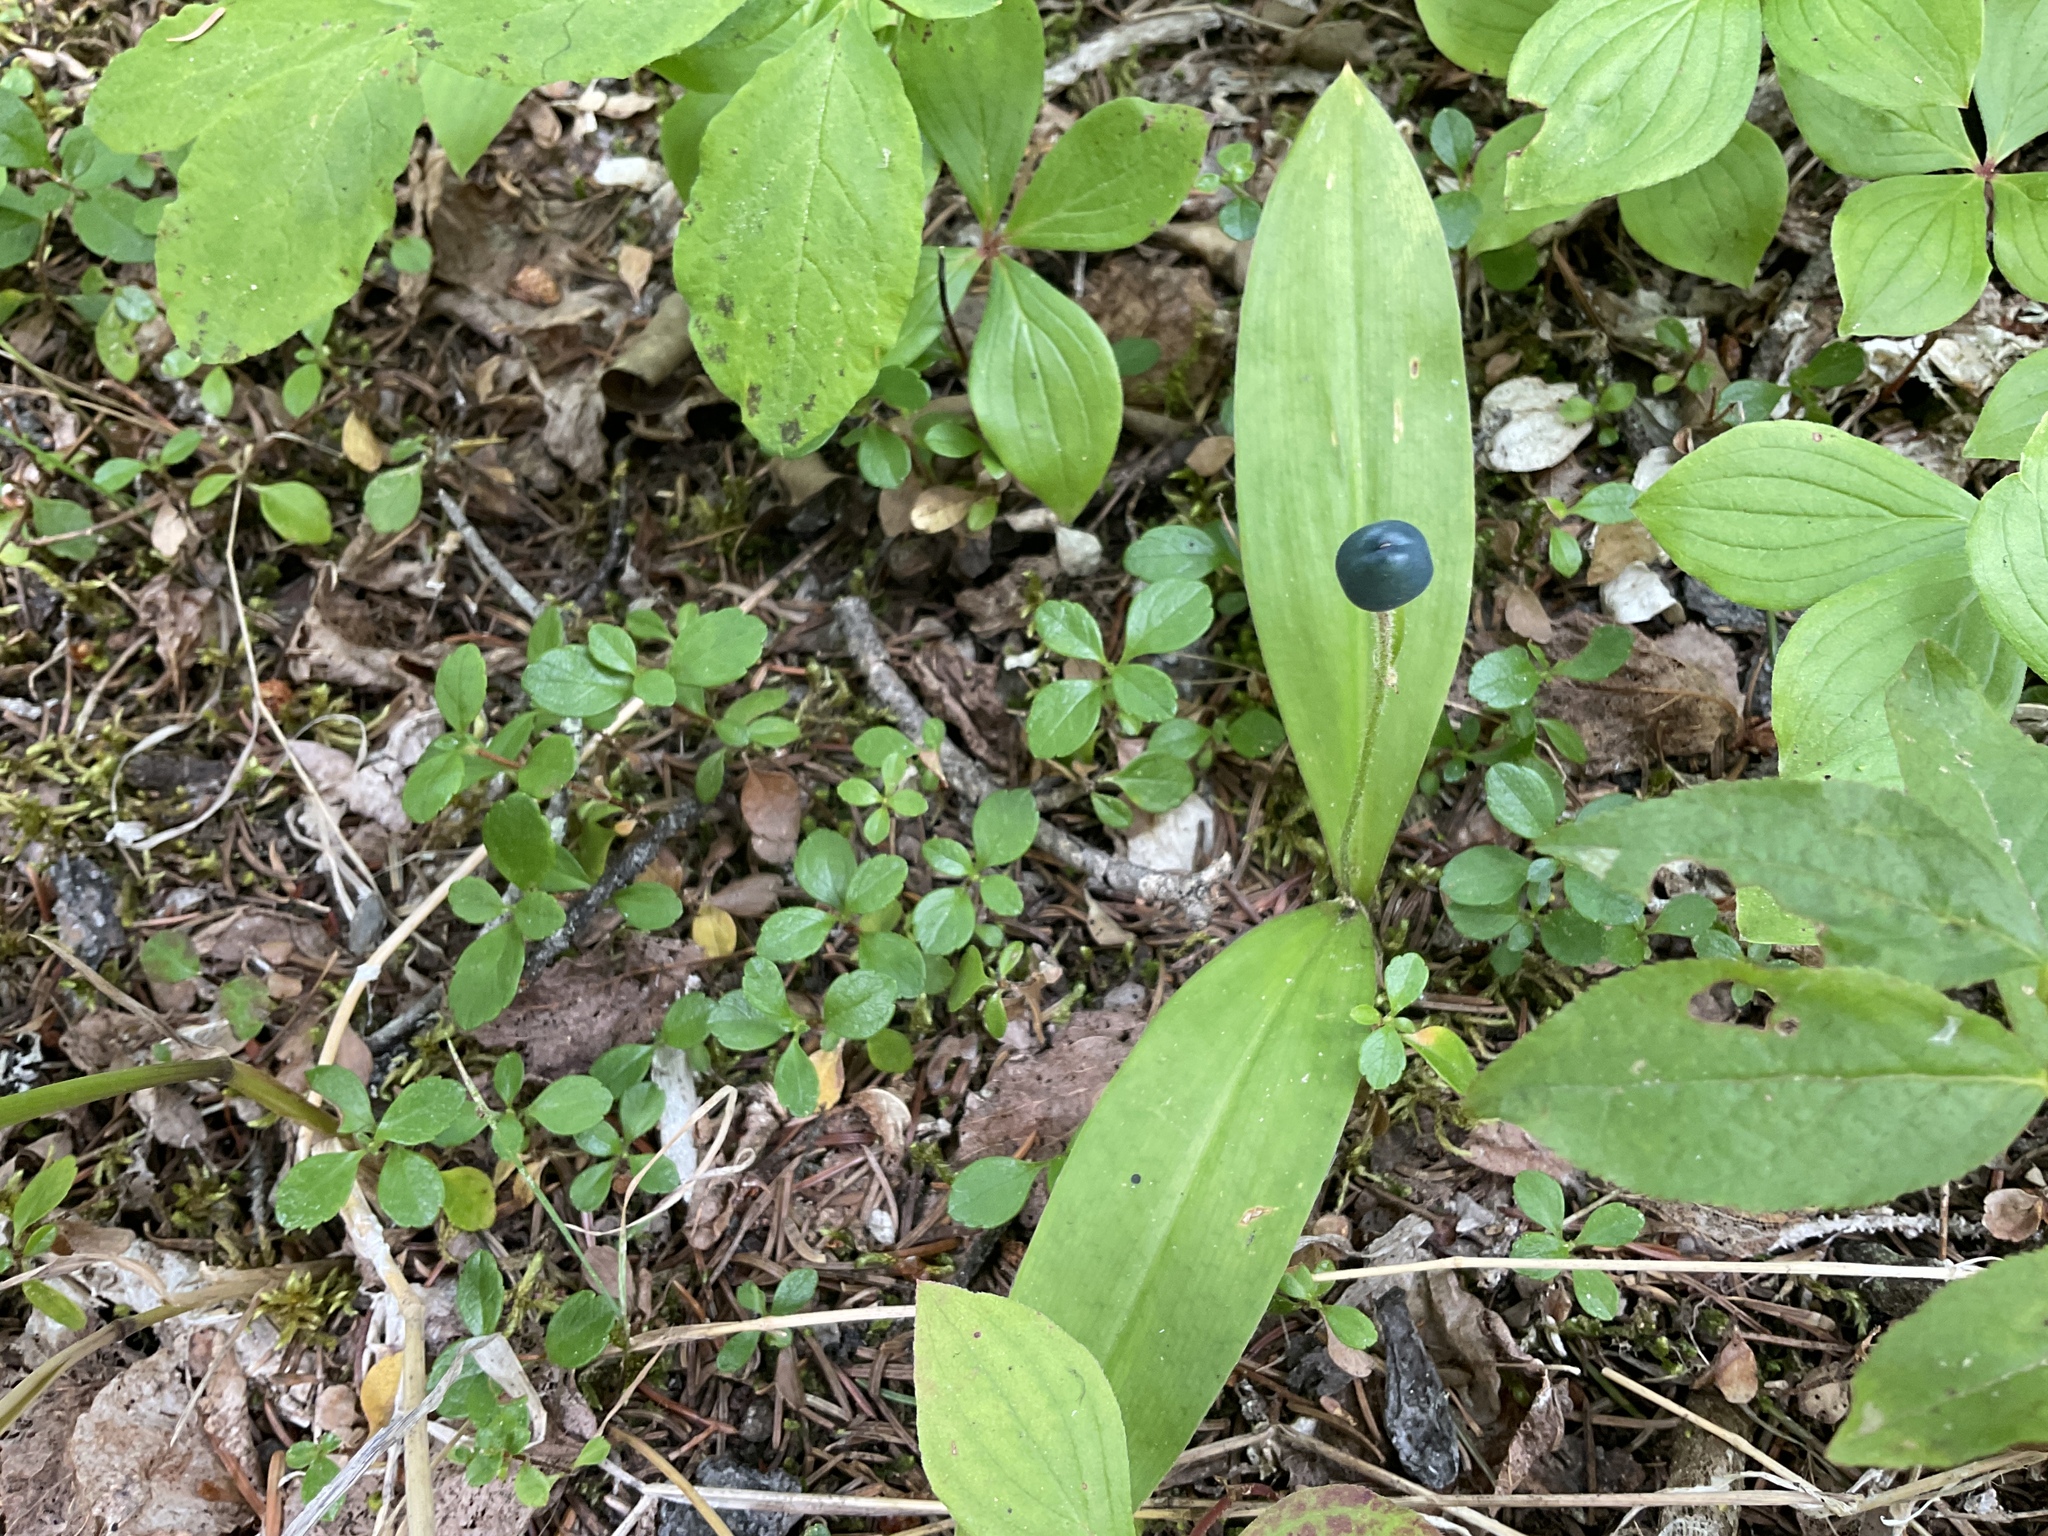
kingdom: Plantae
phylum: Tracheophyta
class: Liliopsida
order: Liliales
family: Liliaceae
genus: Clintonia
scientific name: Clintonia uniflora
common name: Queen's cup
